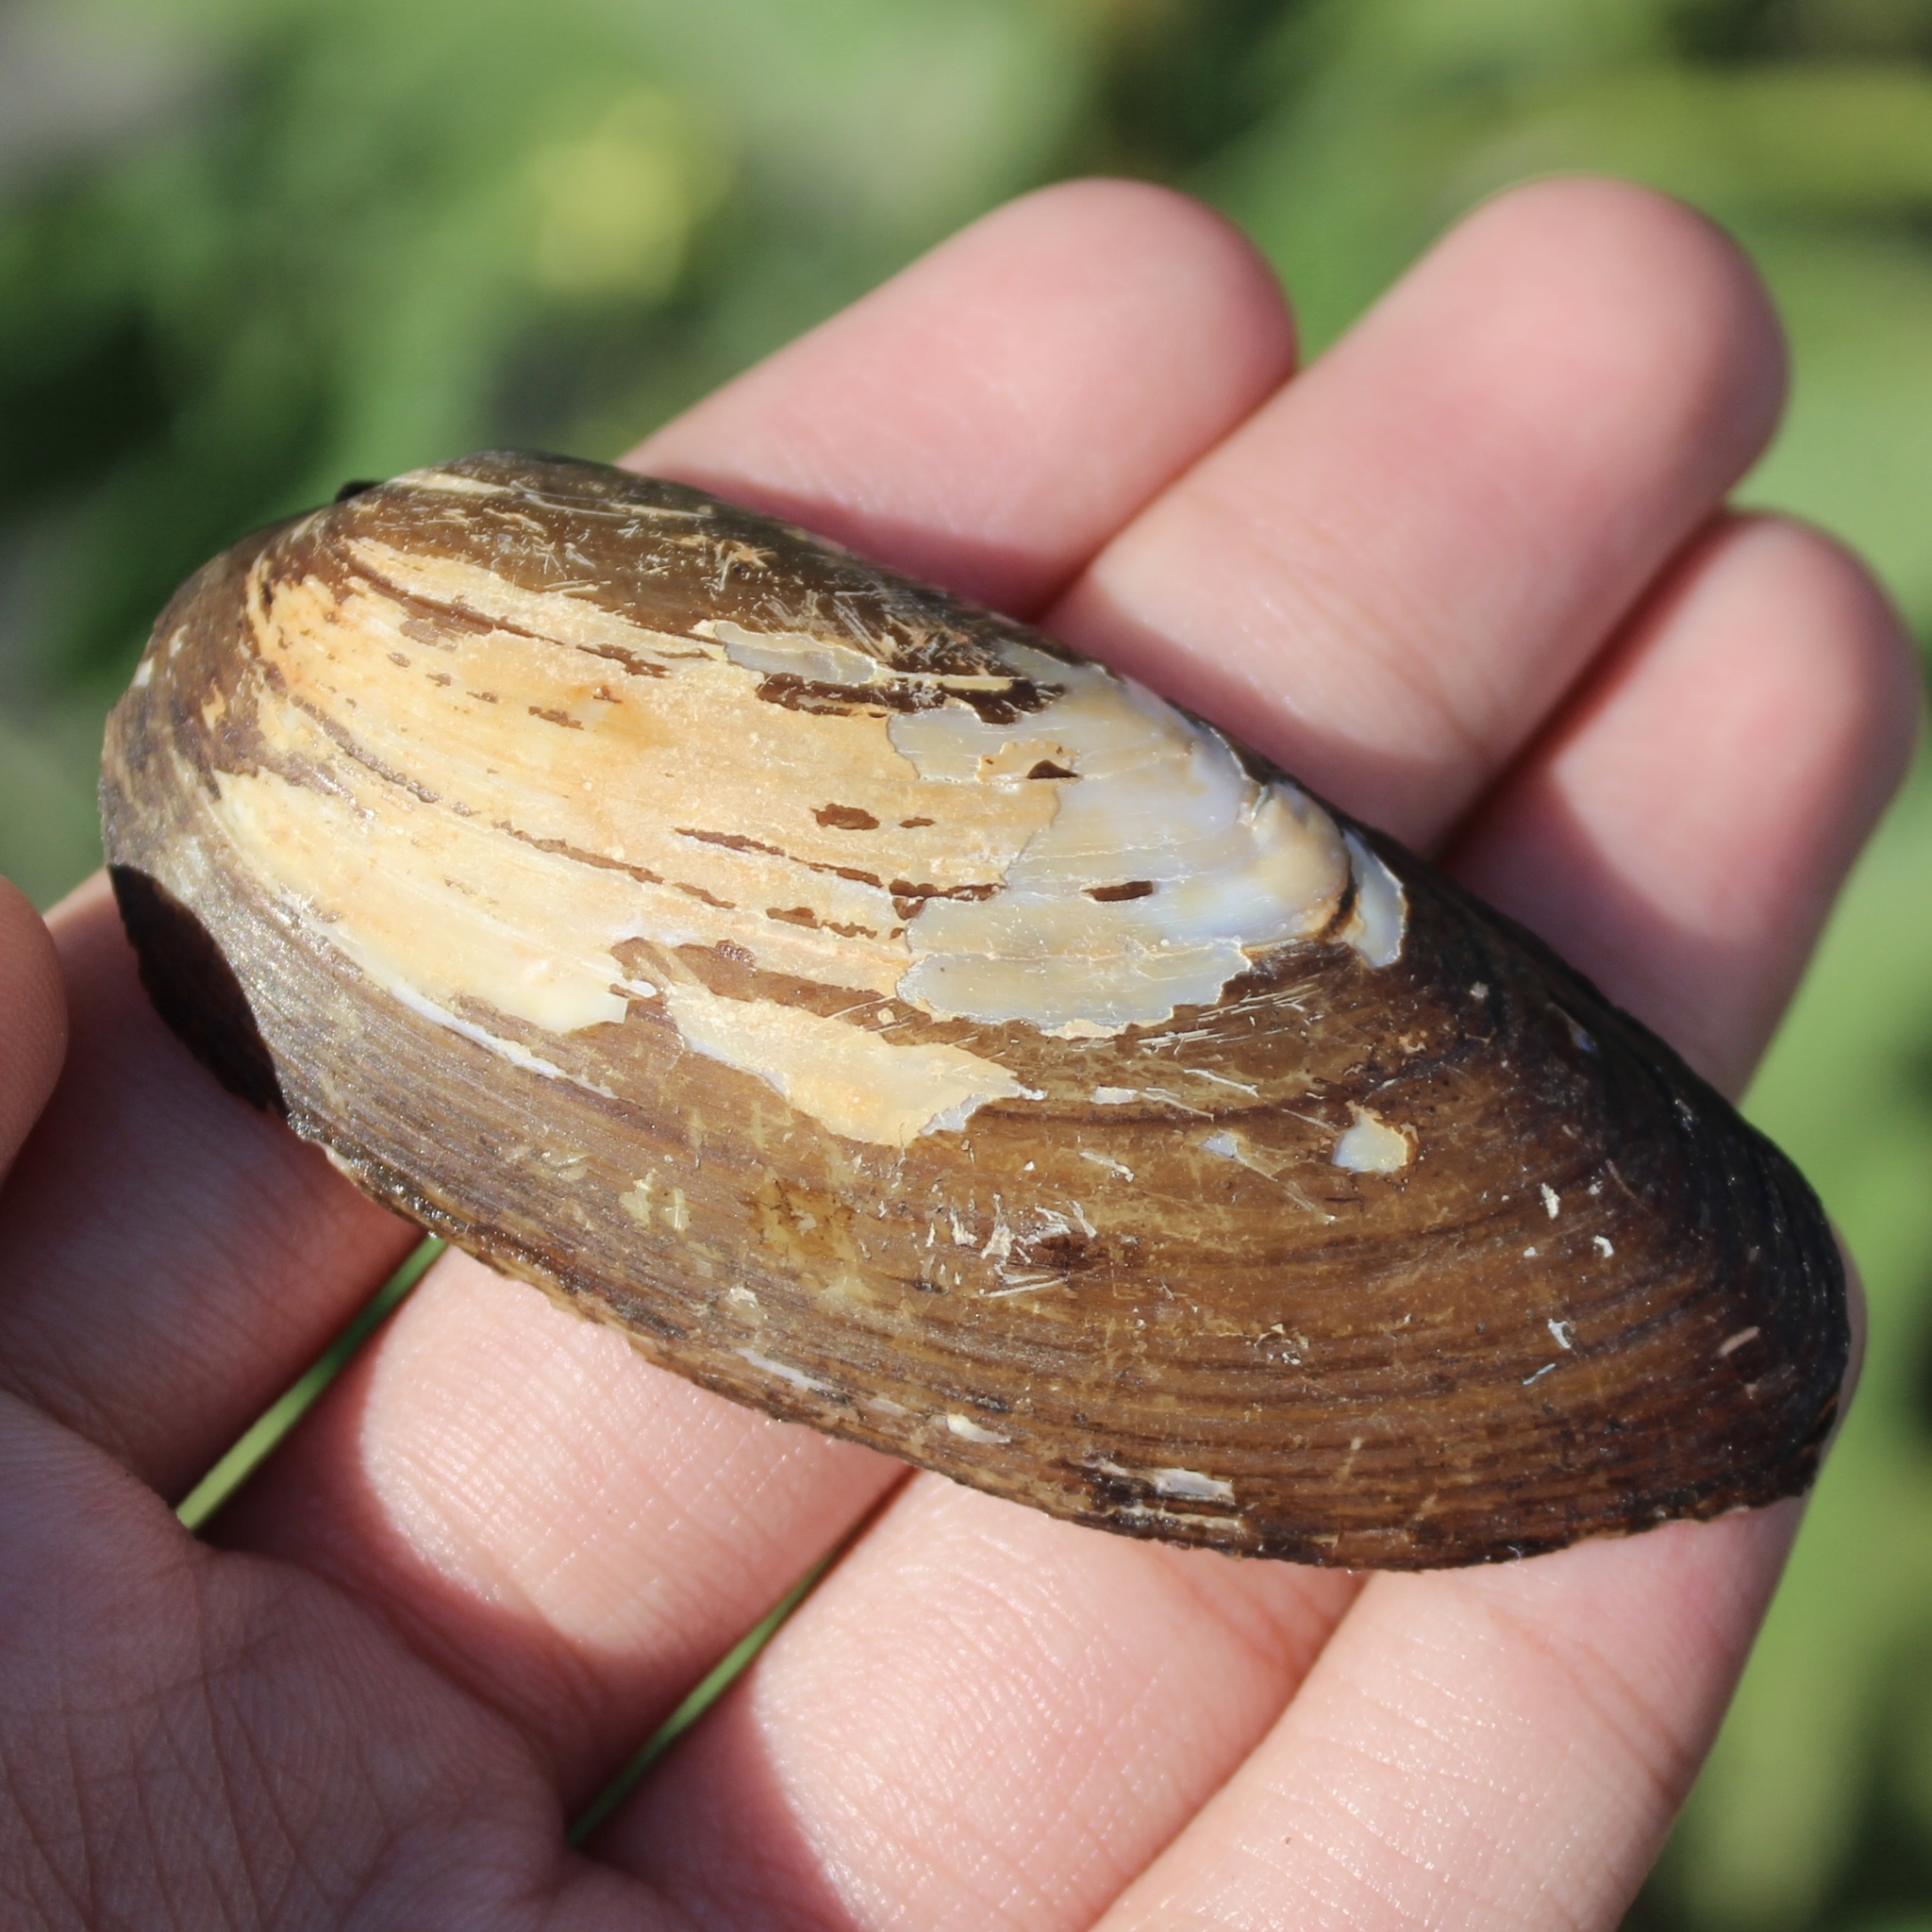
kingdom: Animalia
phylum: Mollusca
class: Bivalvia
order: Unionida
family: Unionidae
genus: Eurynia
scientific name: Eurynia dilatata
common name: Spike
